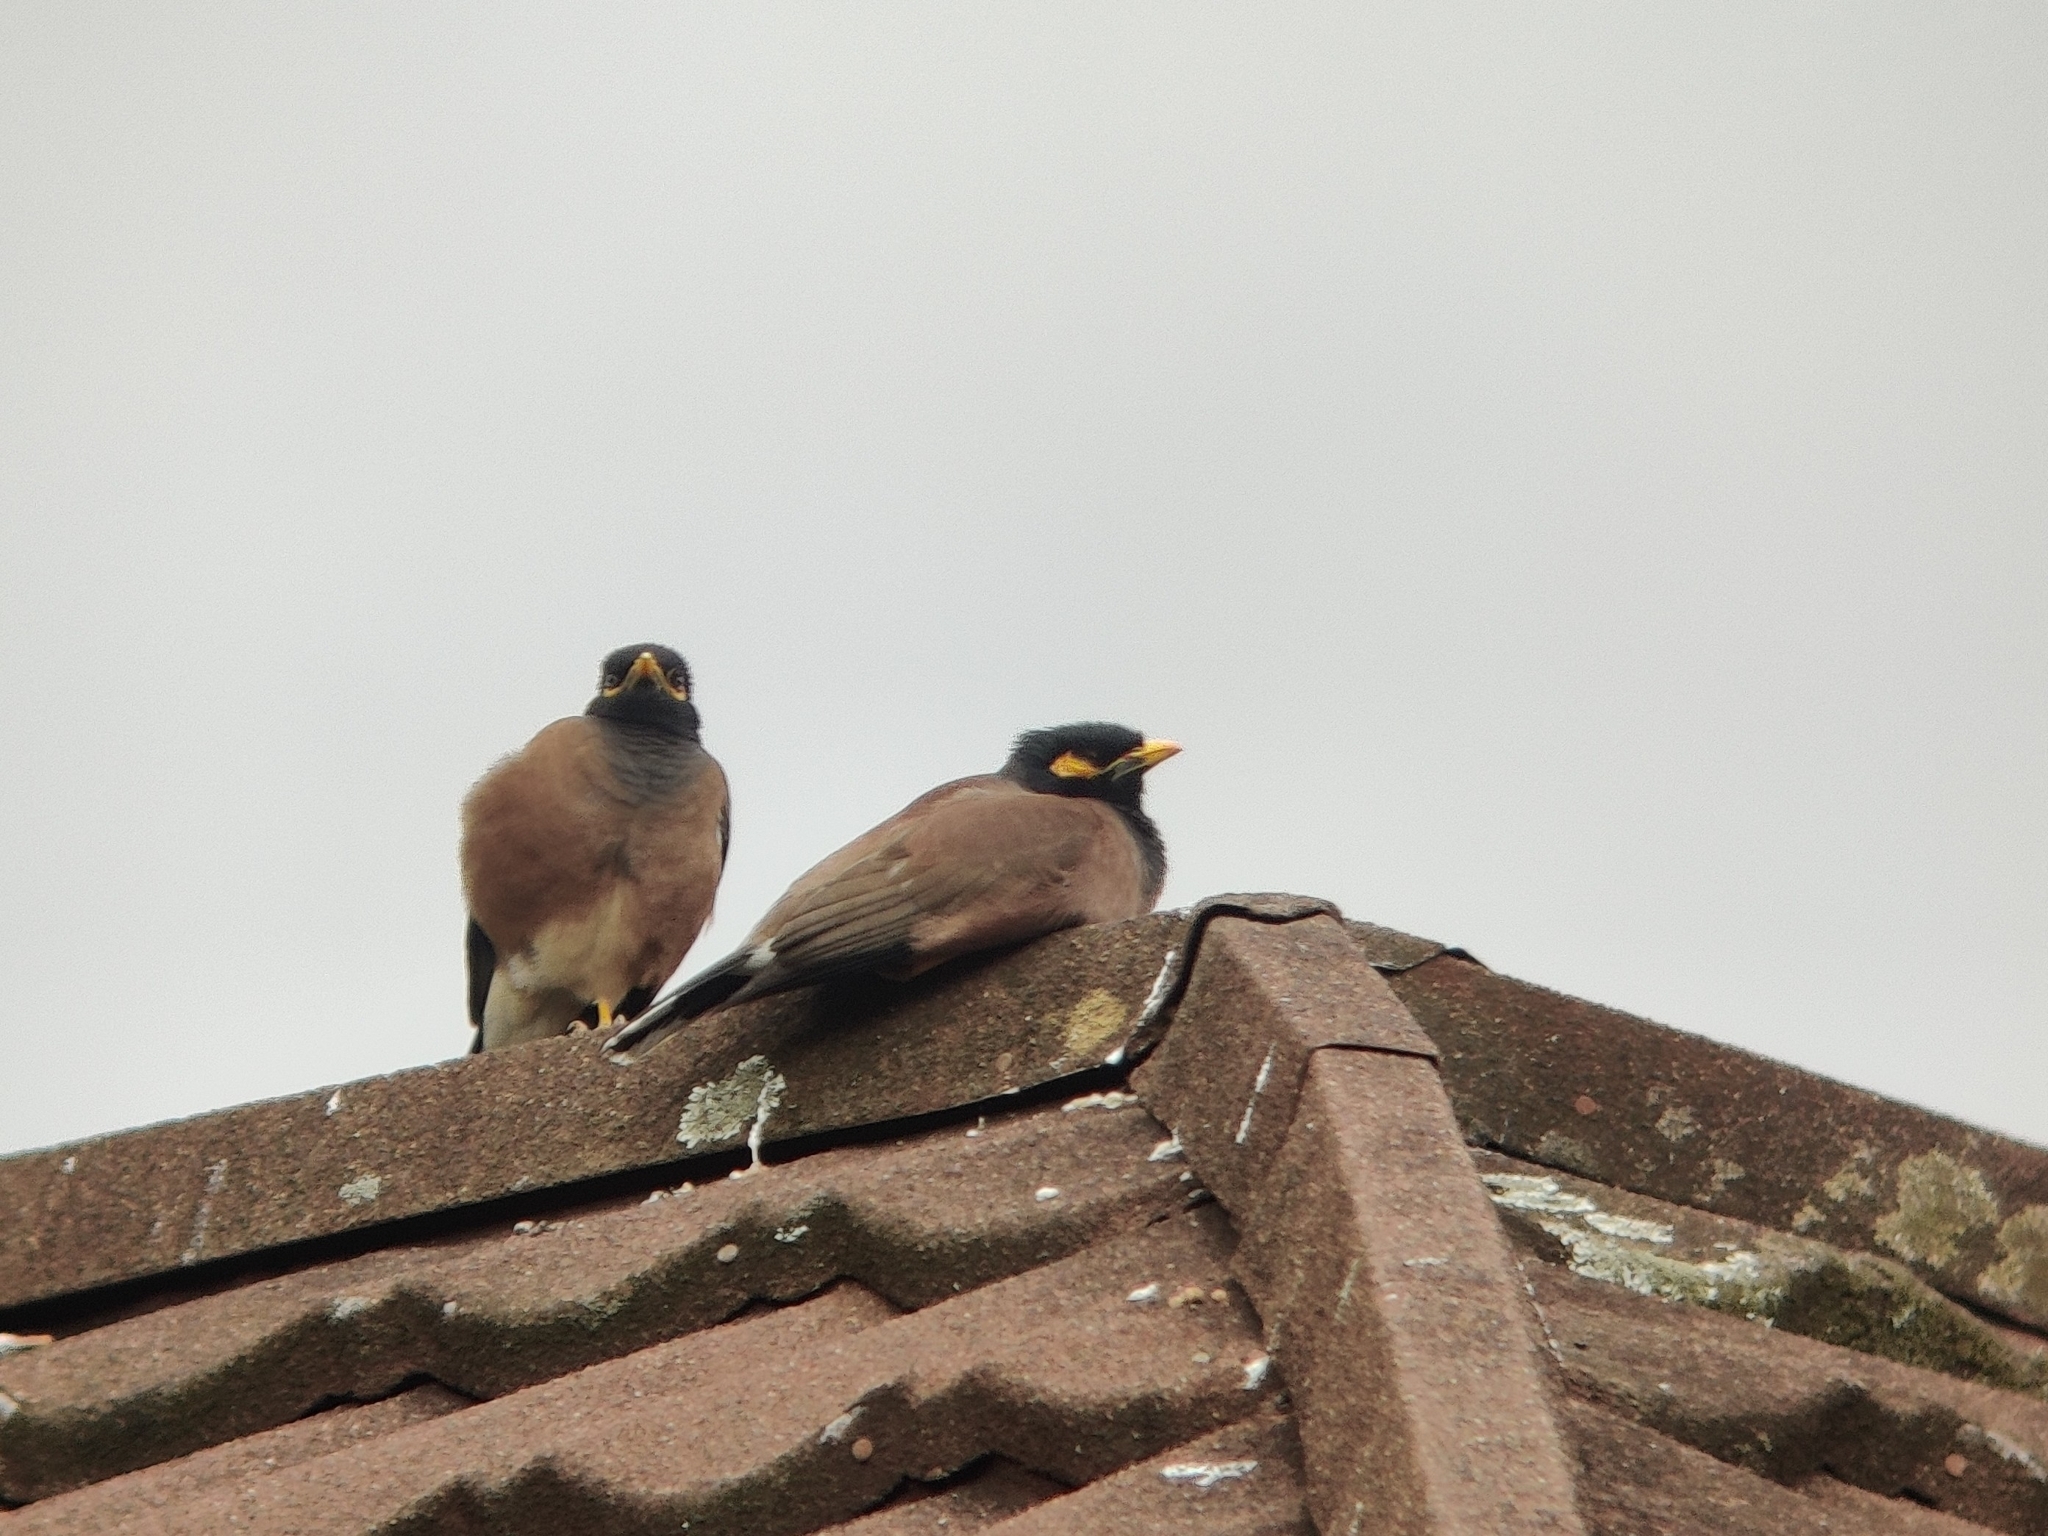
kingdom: Animalia
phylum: Chordata
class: Aves
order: Passeriformes
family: Sturnidae
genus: Acridotheres
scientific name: Acridotheres tristis
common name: Common myna
